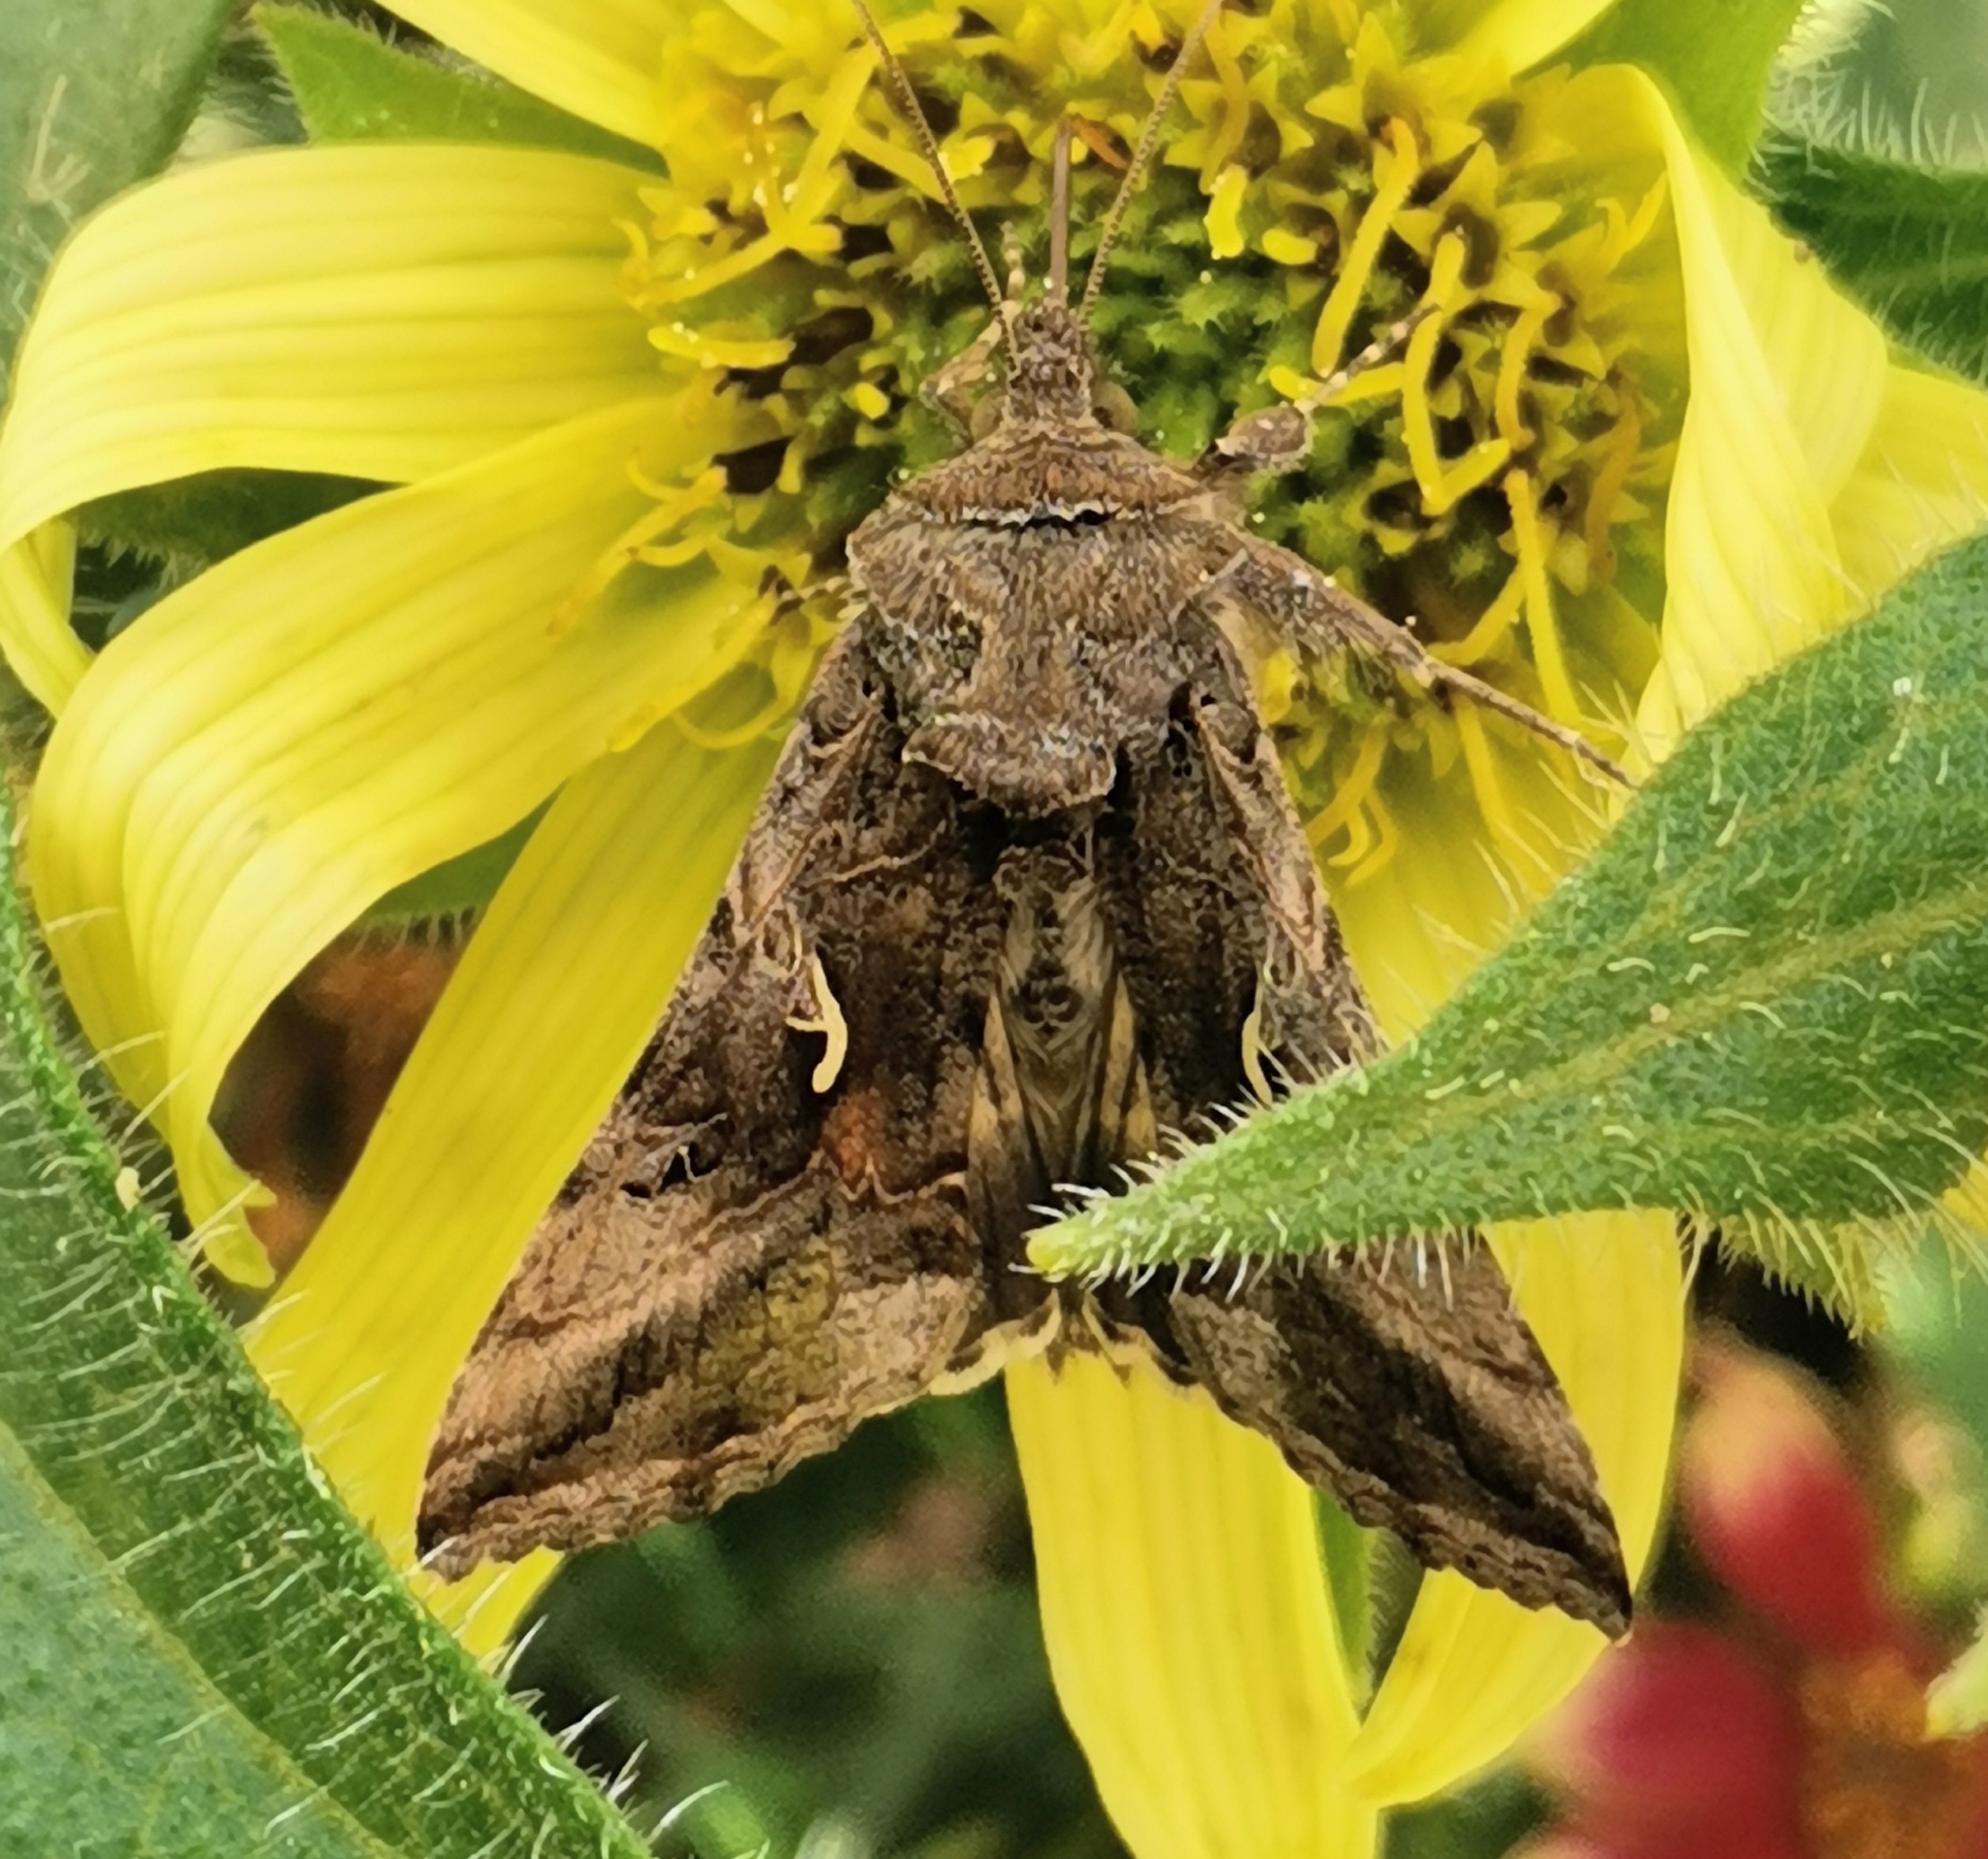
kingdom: Animalia
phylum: Arthropoda
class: Insecta
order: Lepidoptera
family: Noctuidae
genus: Autographa
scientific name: Autographa gamma
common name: Silver y
